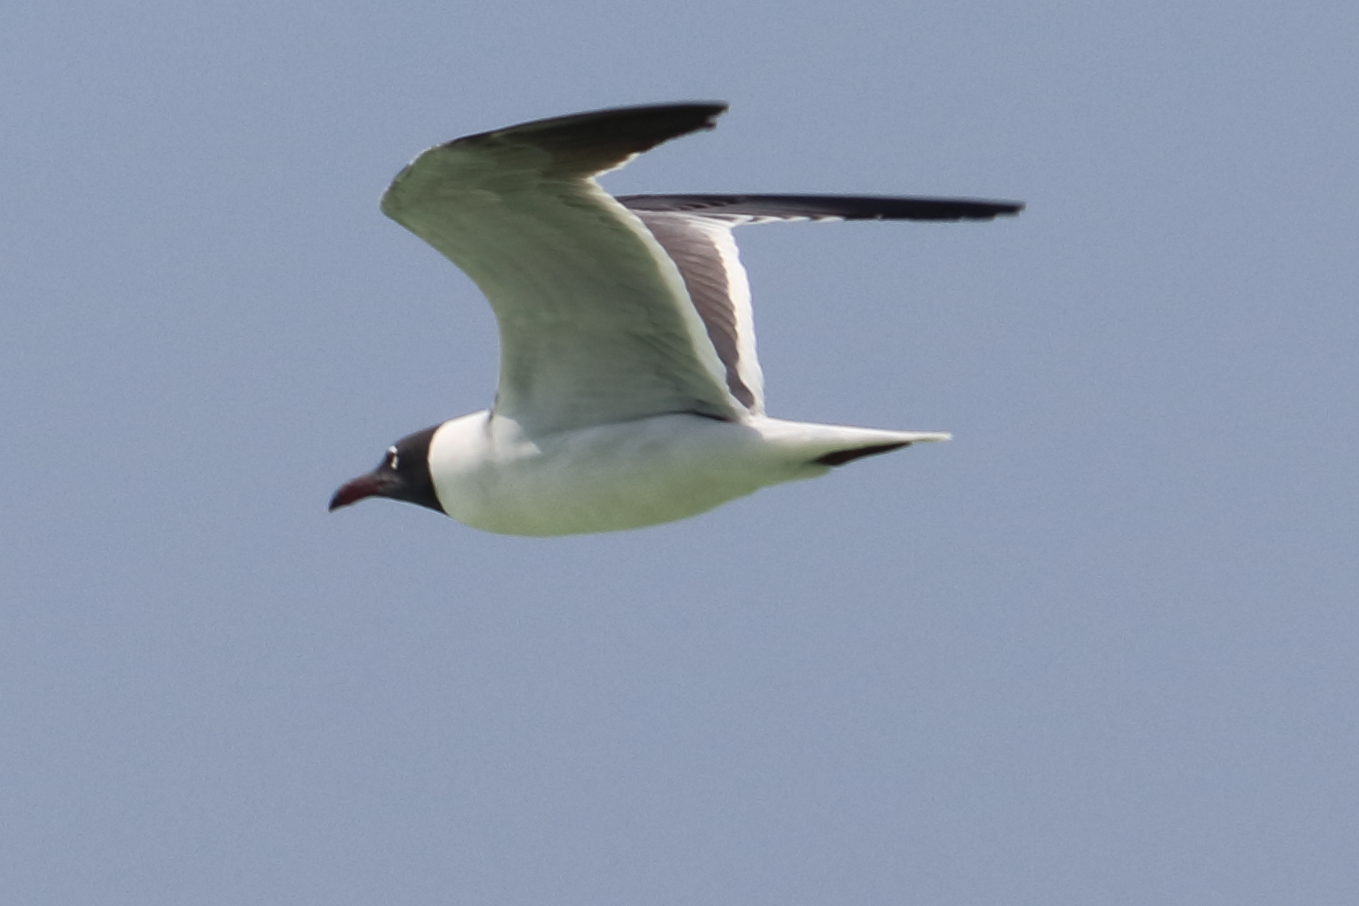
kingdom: Animalia
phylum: Chordata
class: Aves
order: Charadriiformes
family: Laridae
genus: Leucophaeus
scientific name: Leucophaeus atricilla
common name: Laughing gull
